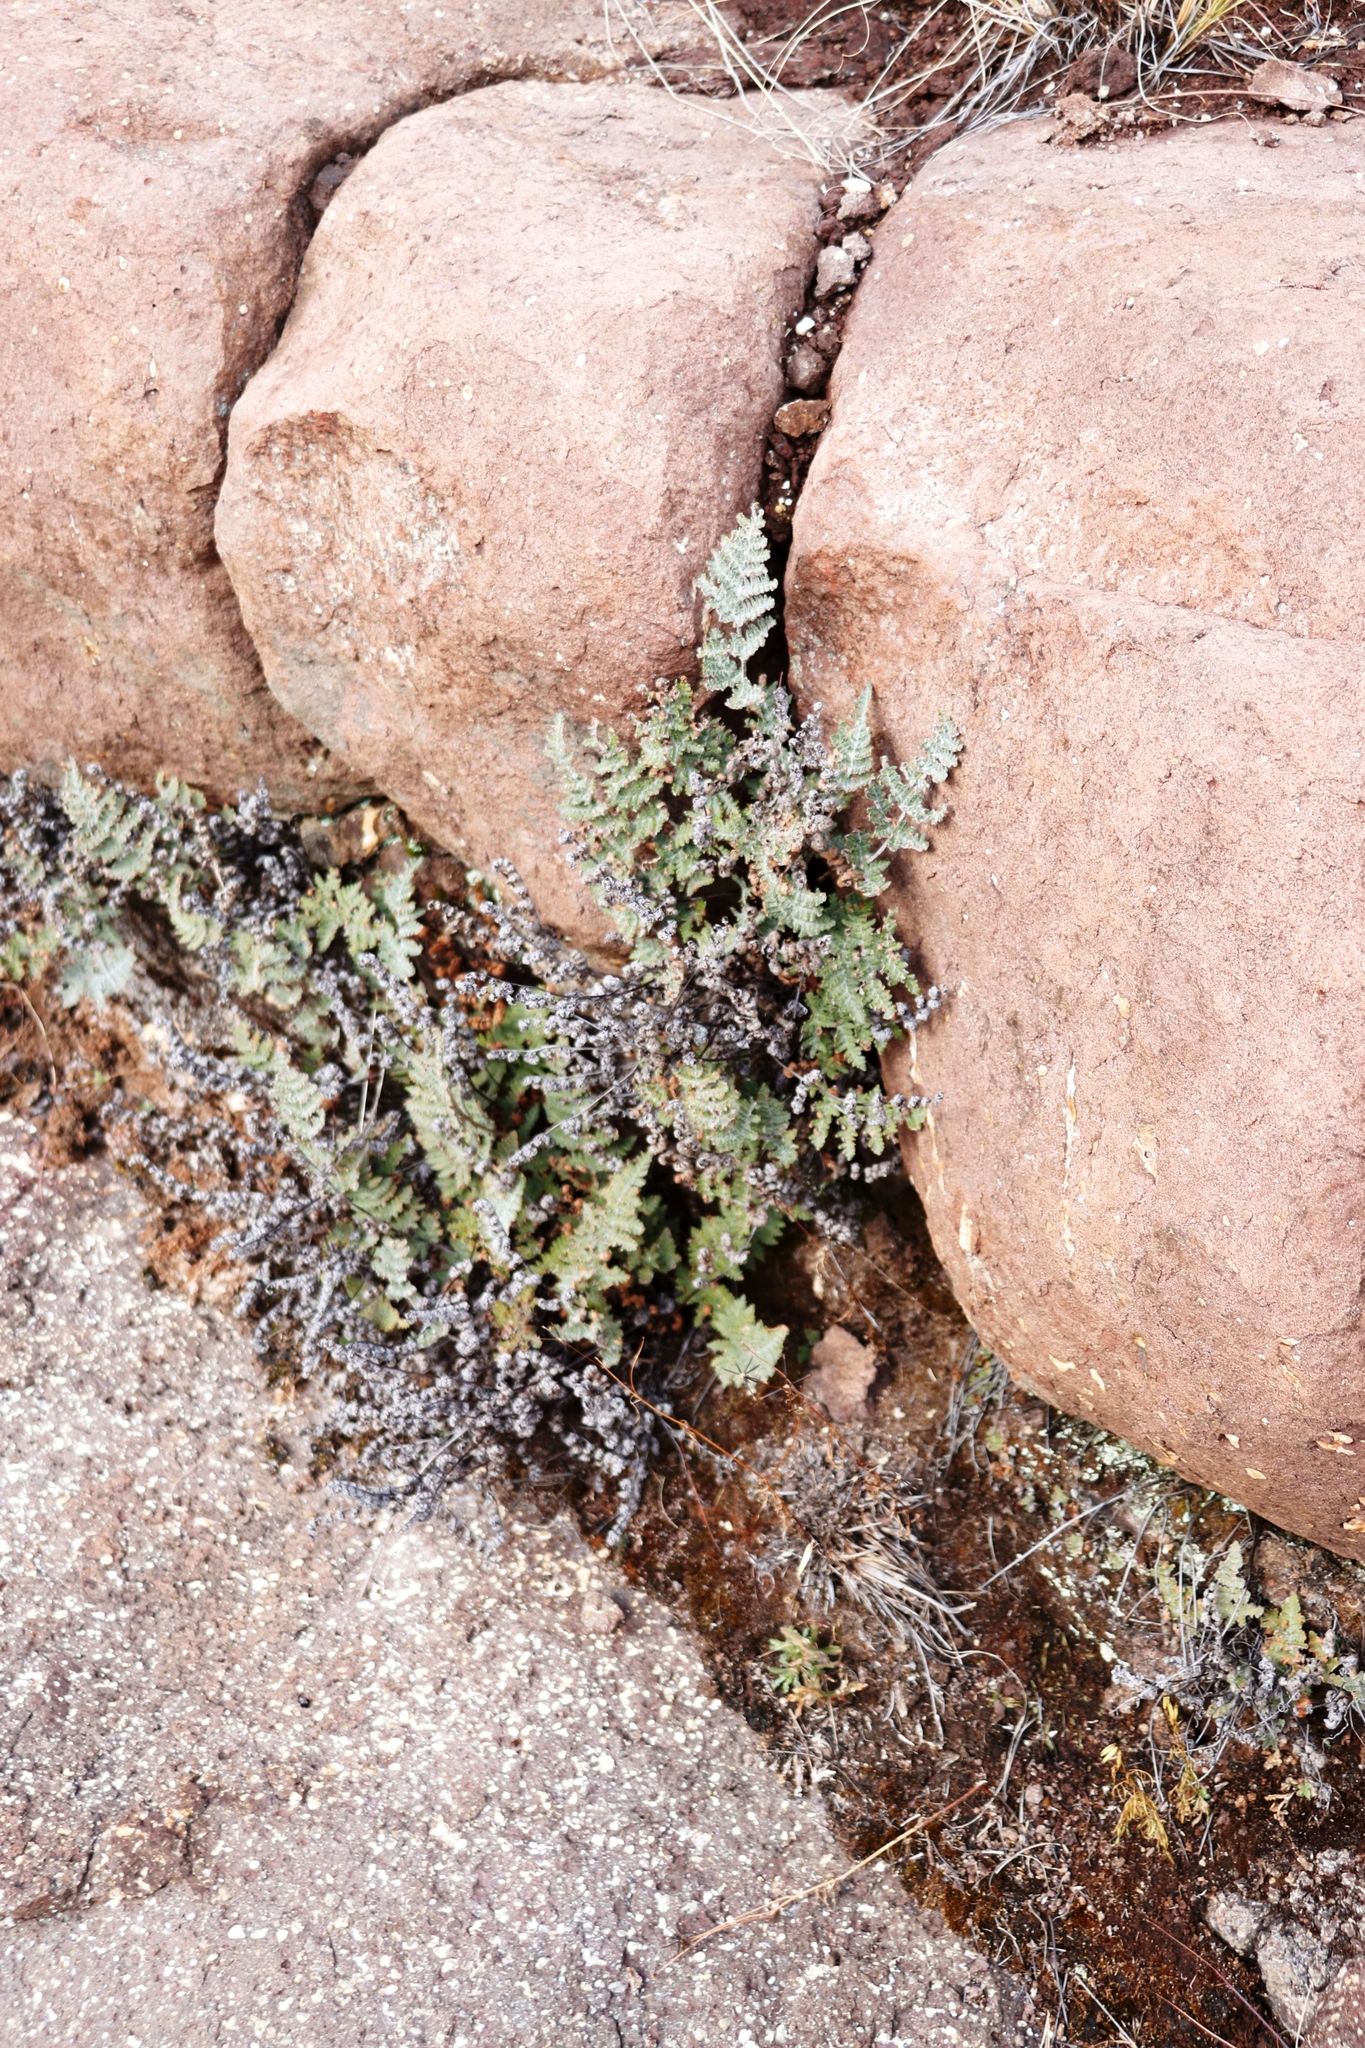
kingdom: Plantae
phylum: Tracheophyta
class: Polypodiopsida
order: Polypodiales
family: Pteridaceae
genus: Cheilanthes
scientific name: Cheilanthes eckloniana
